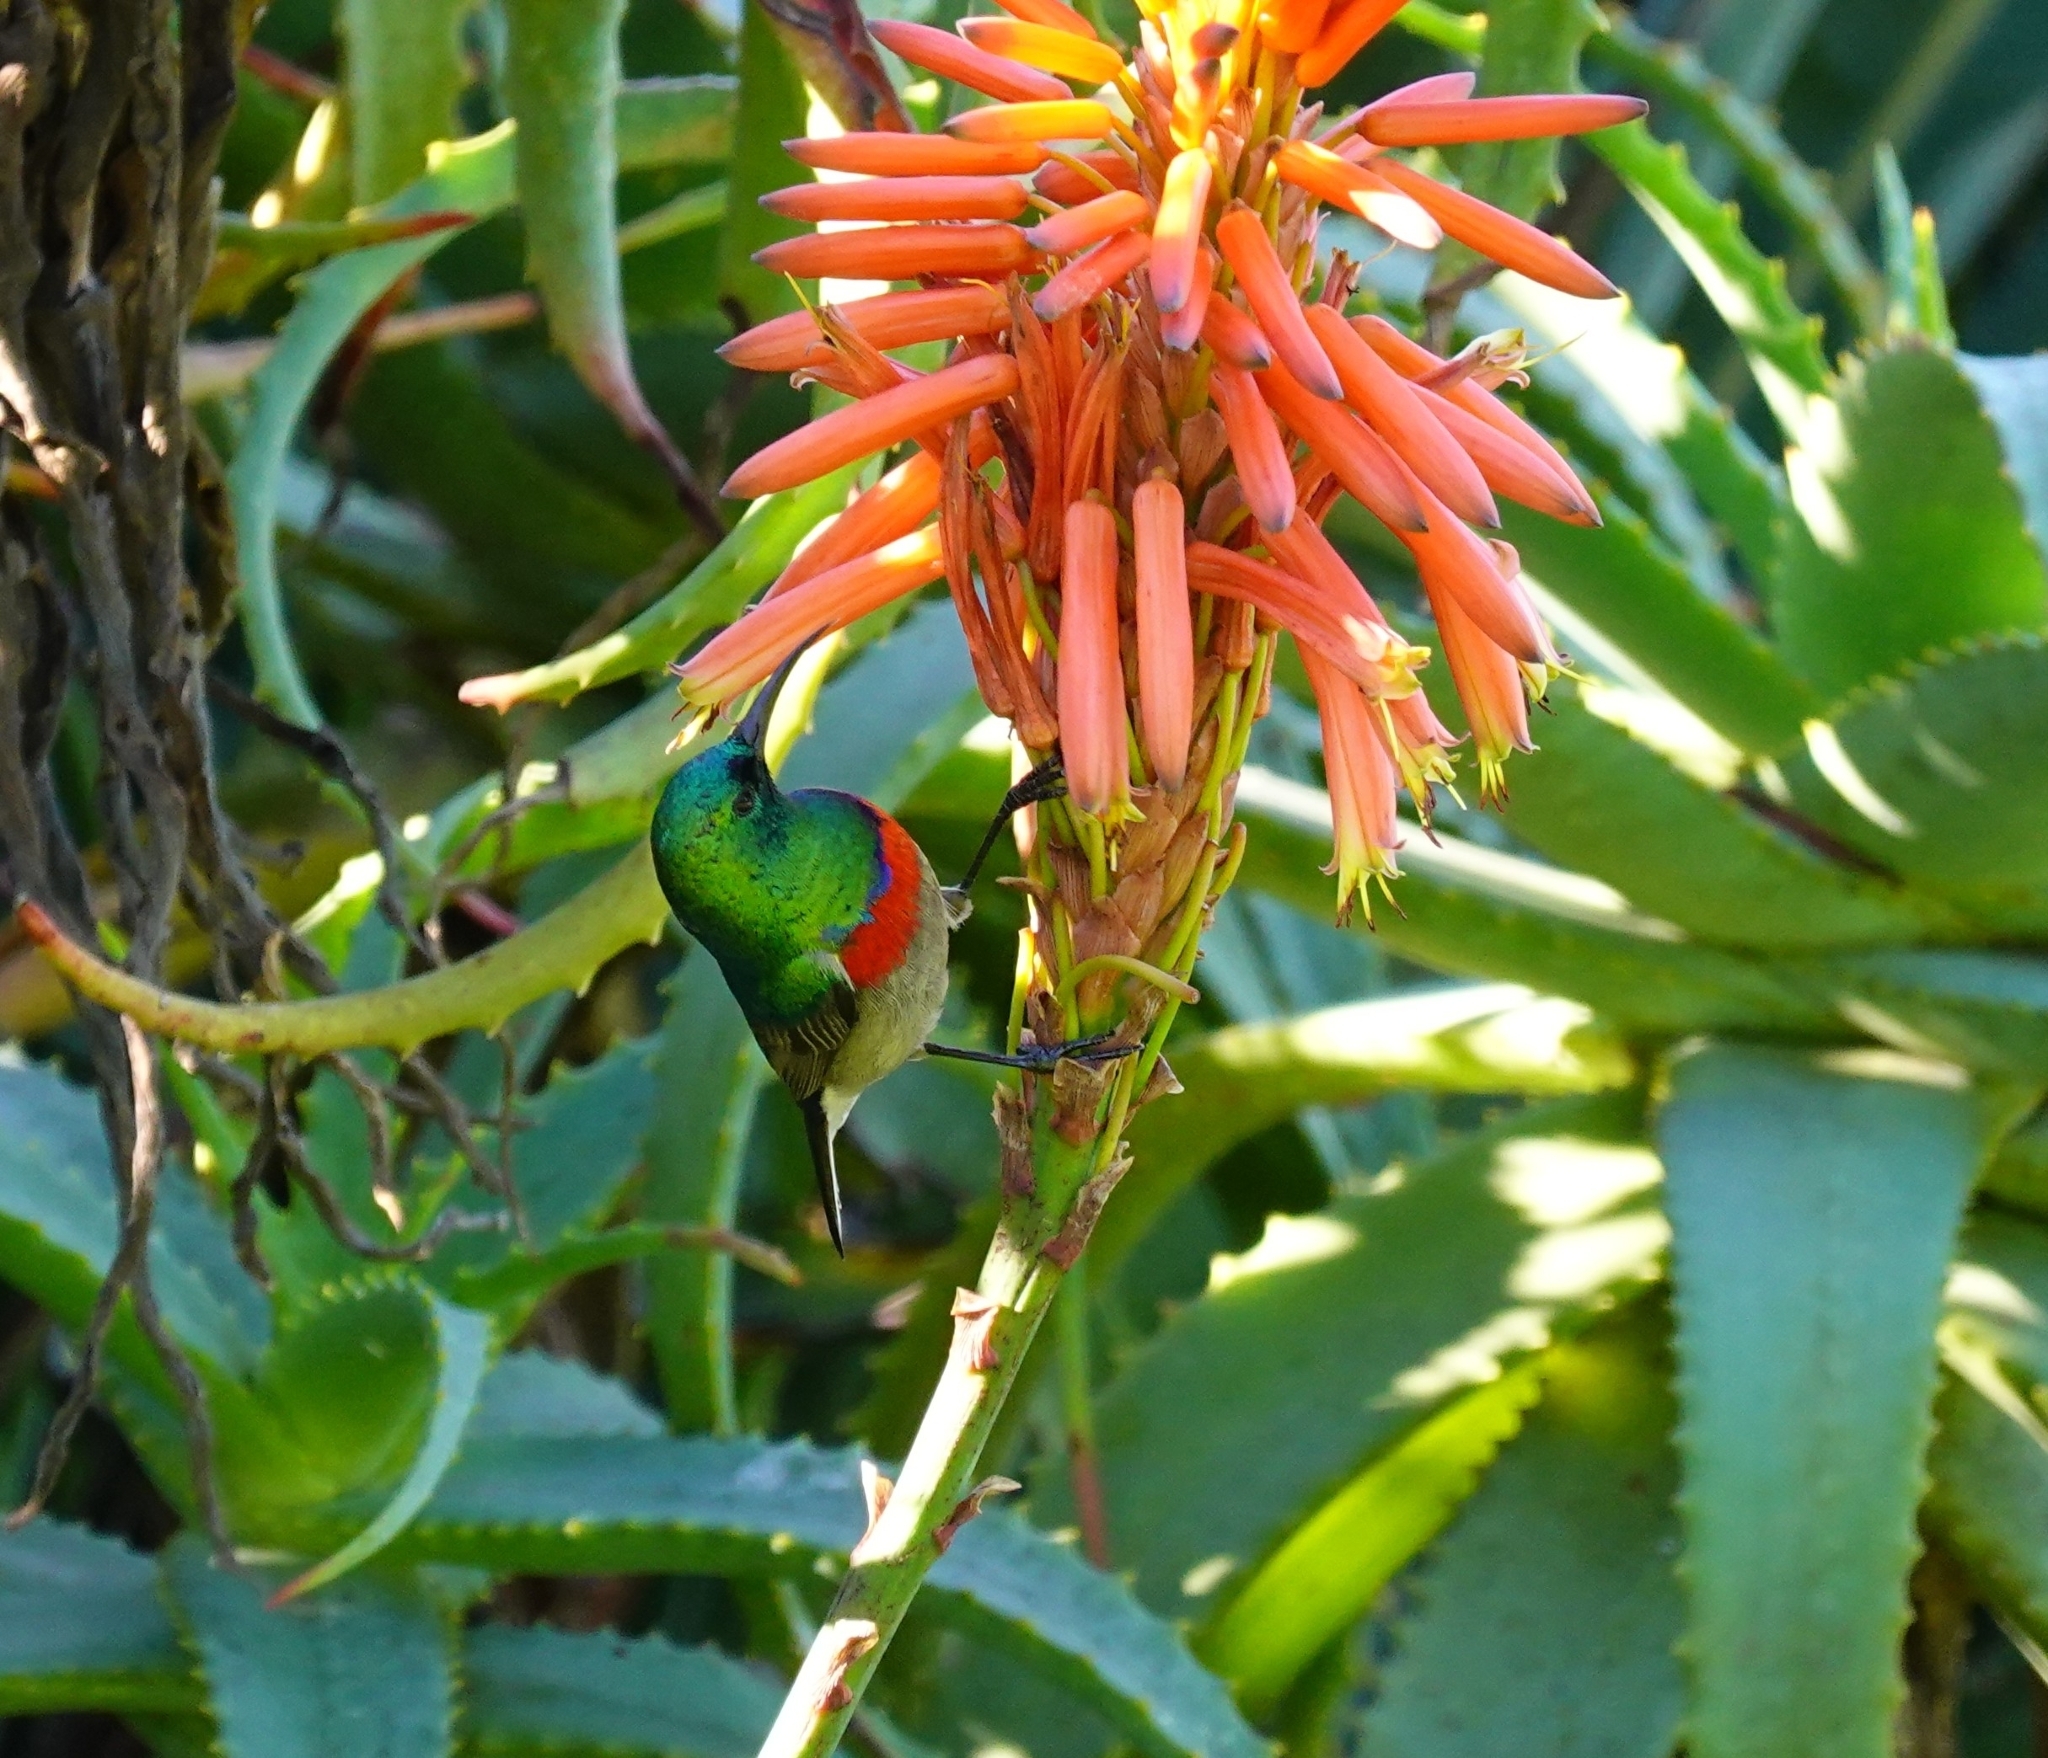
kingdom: Animalia
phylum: Chordata
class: Aves
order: Passeriformes
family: Nectariniidae
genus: Cinnyris
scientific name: Cinnyris chalybeus
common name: Southern double-collared sunbird
